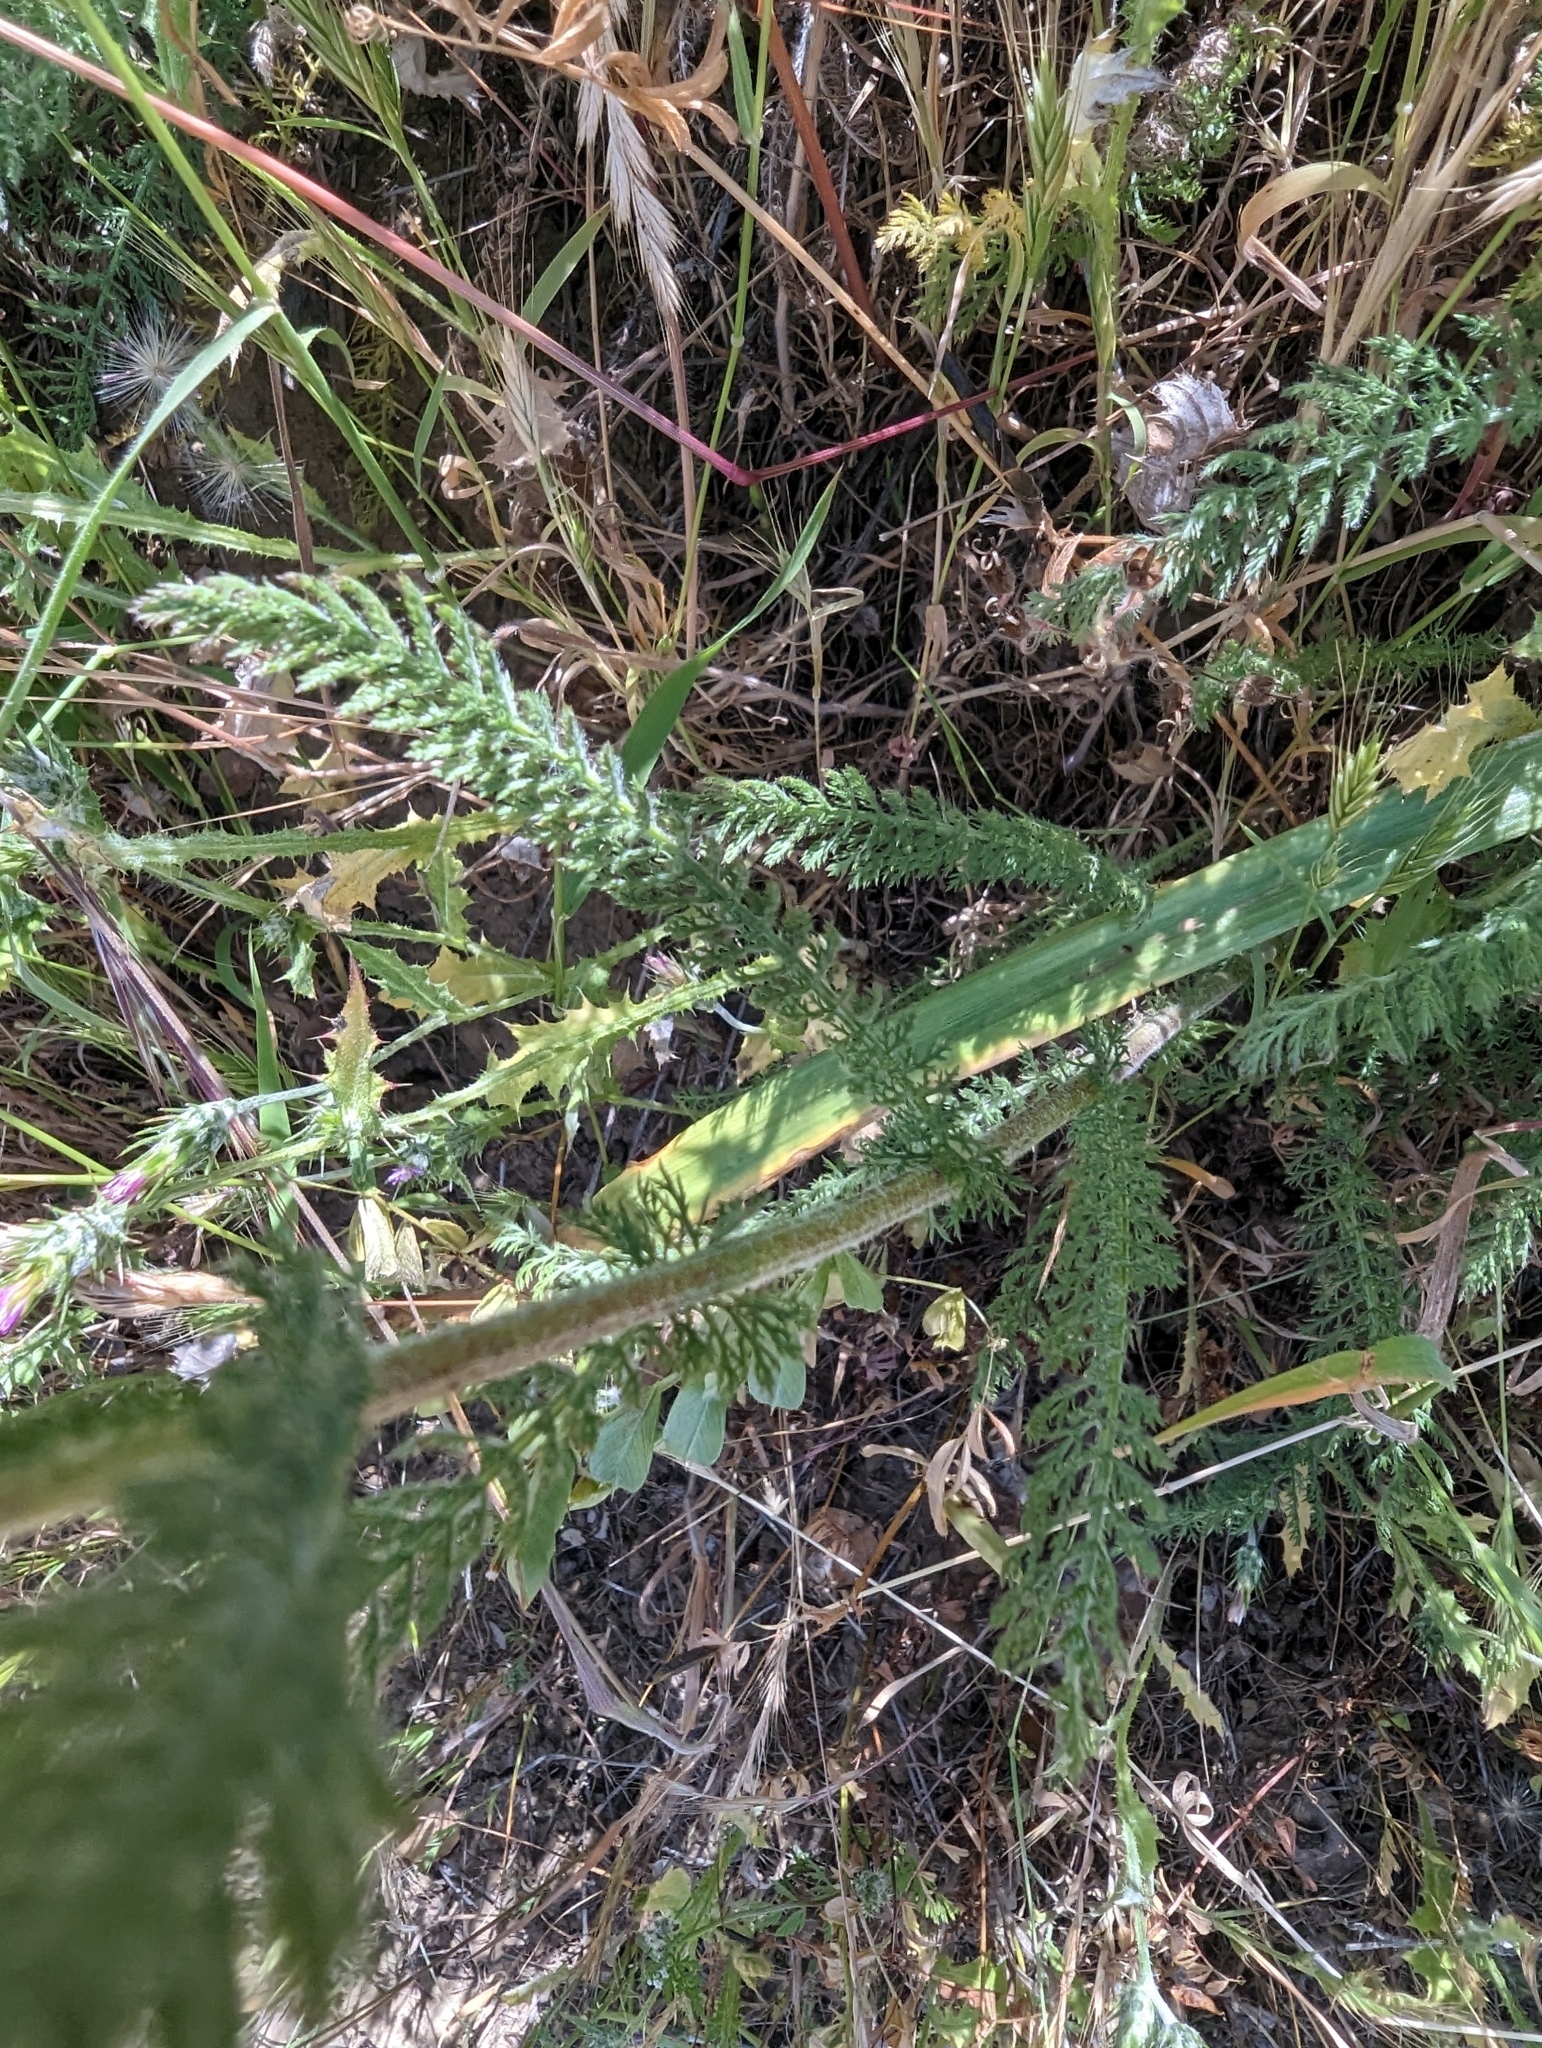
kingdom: Plantae
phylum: Tracheophyta
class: Magnoliopsida
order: Asterales
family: Asteraceae
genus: Achillea
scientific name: Achillea millefolium
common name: Yarrow
